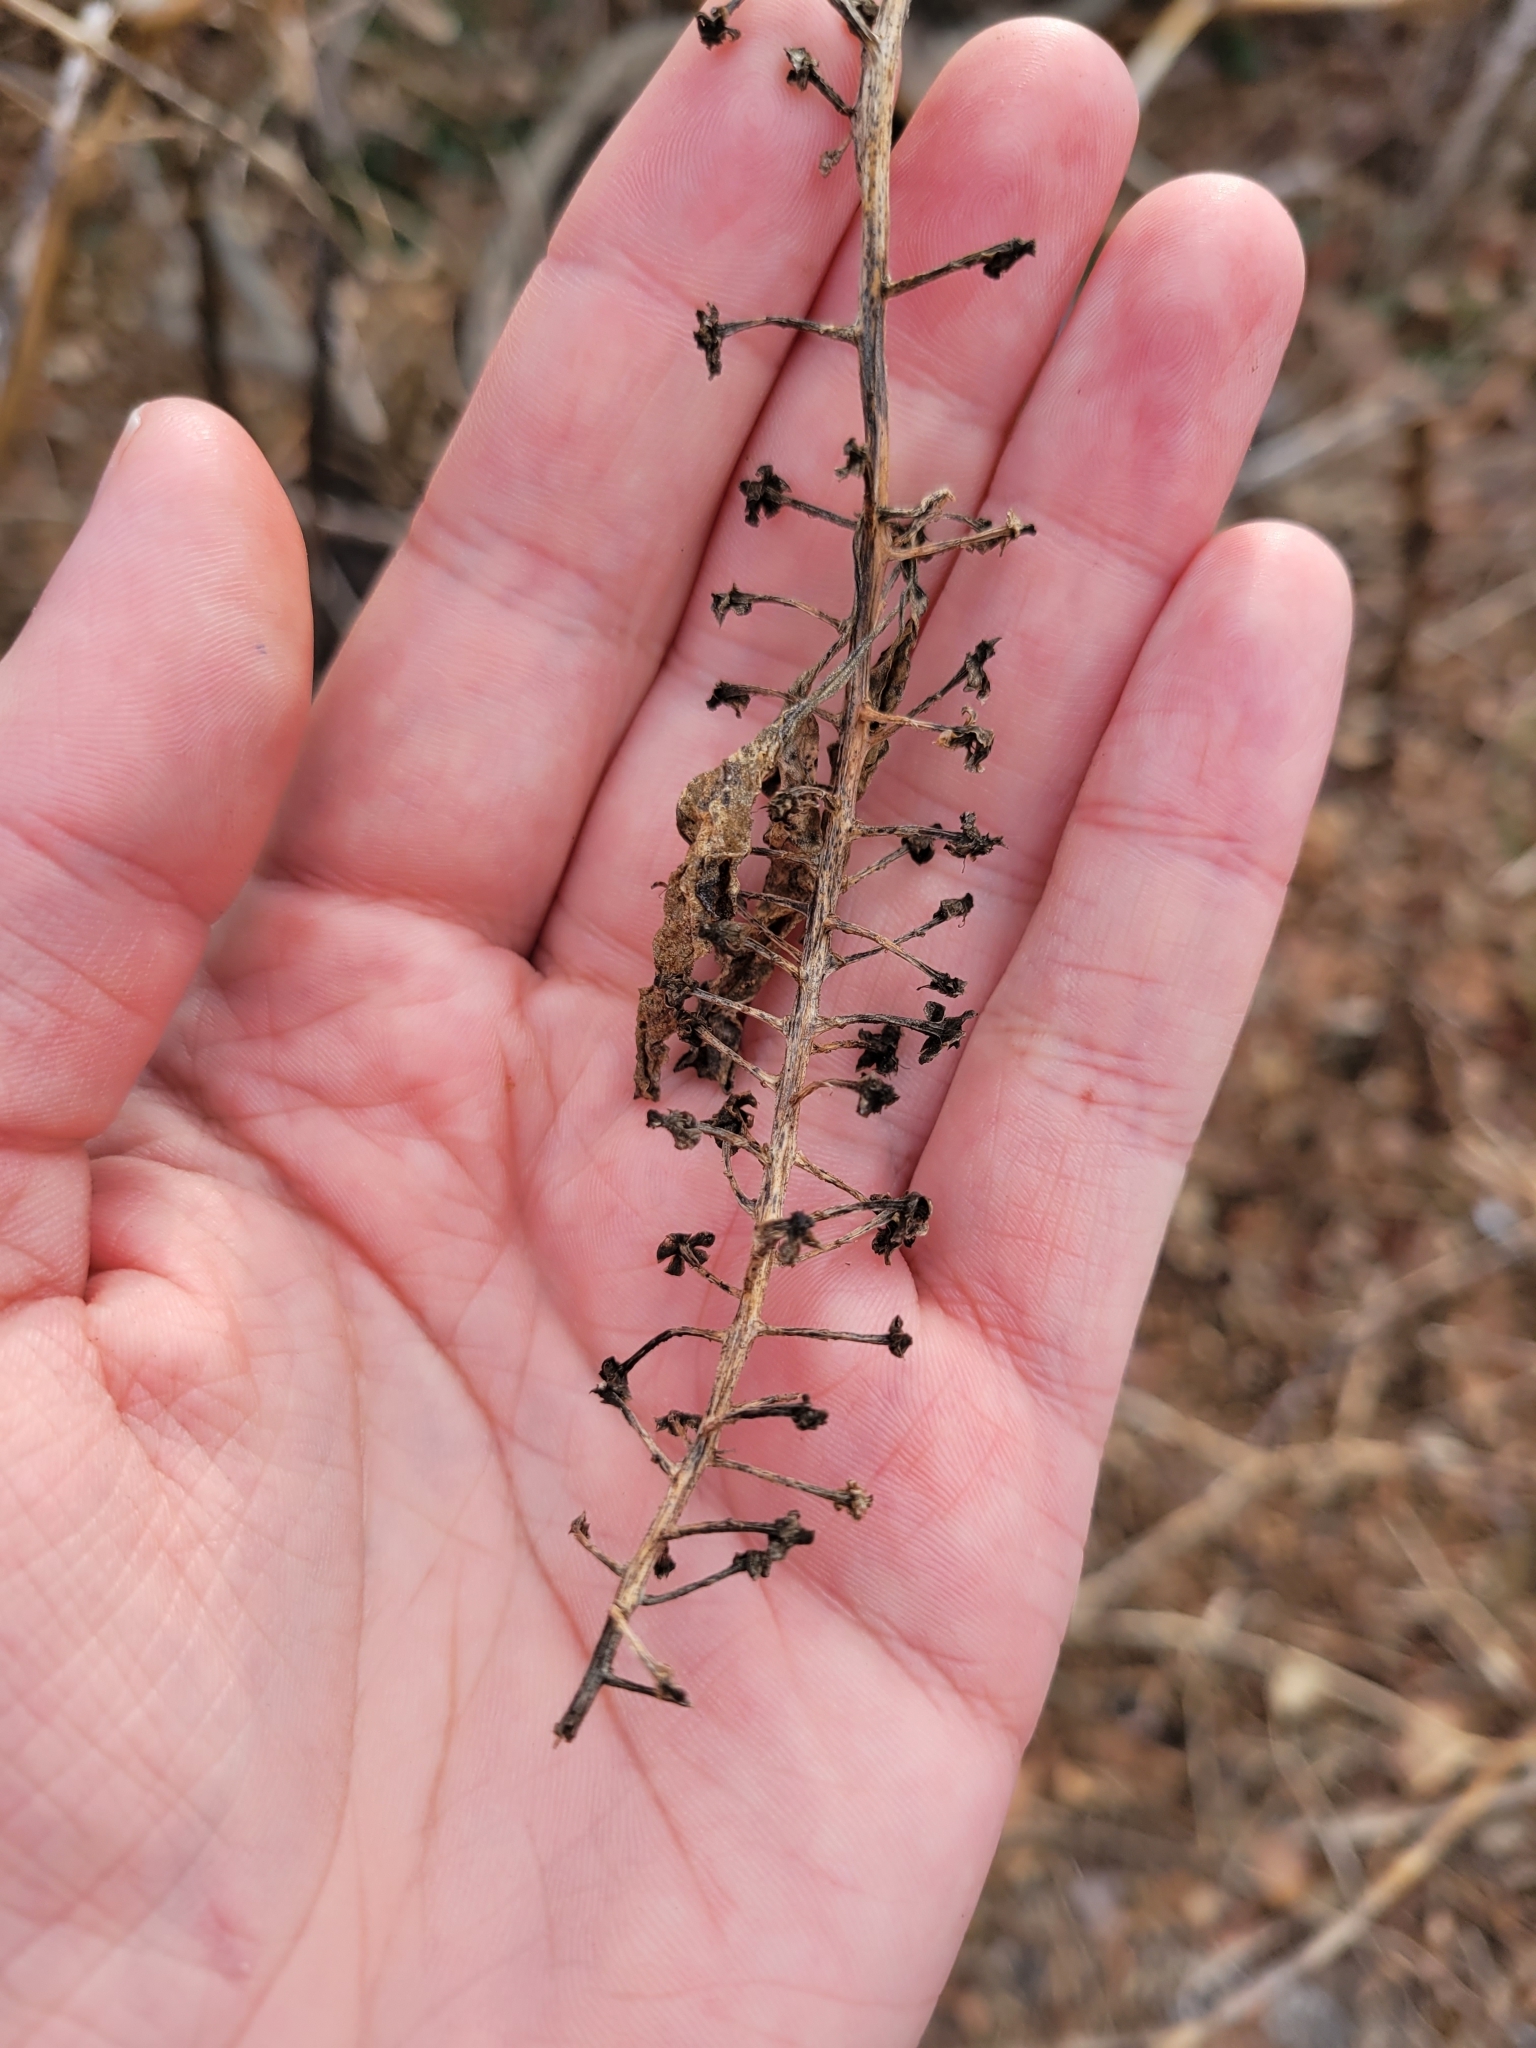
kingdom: Plantae
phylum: Tracheophyta
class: Magnoliopsida
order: Caryophyllales
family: Phytolaccaceae
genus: Phytolacca
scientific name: Phytolacca americana
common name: American pokeweed
